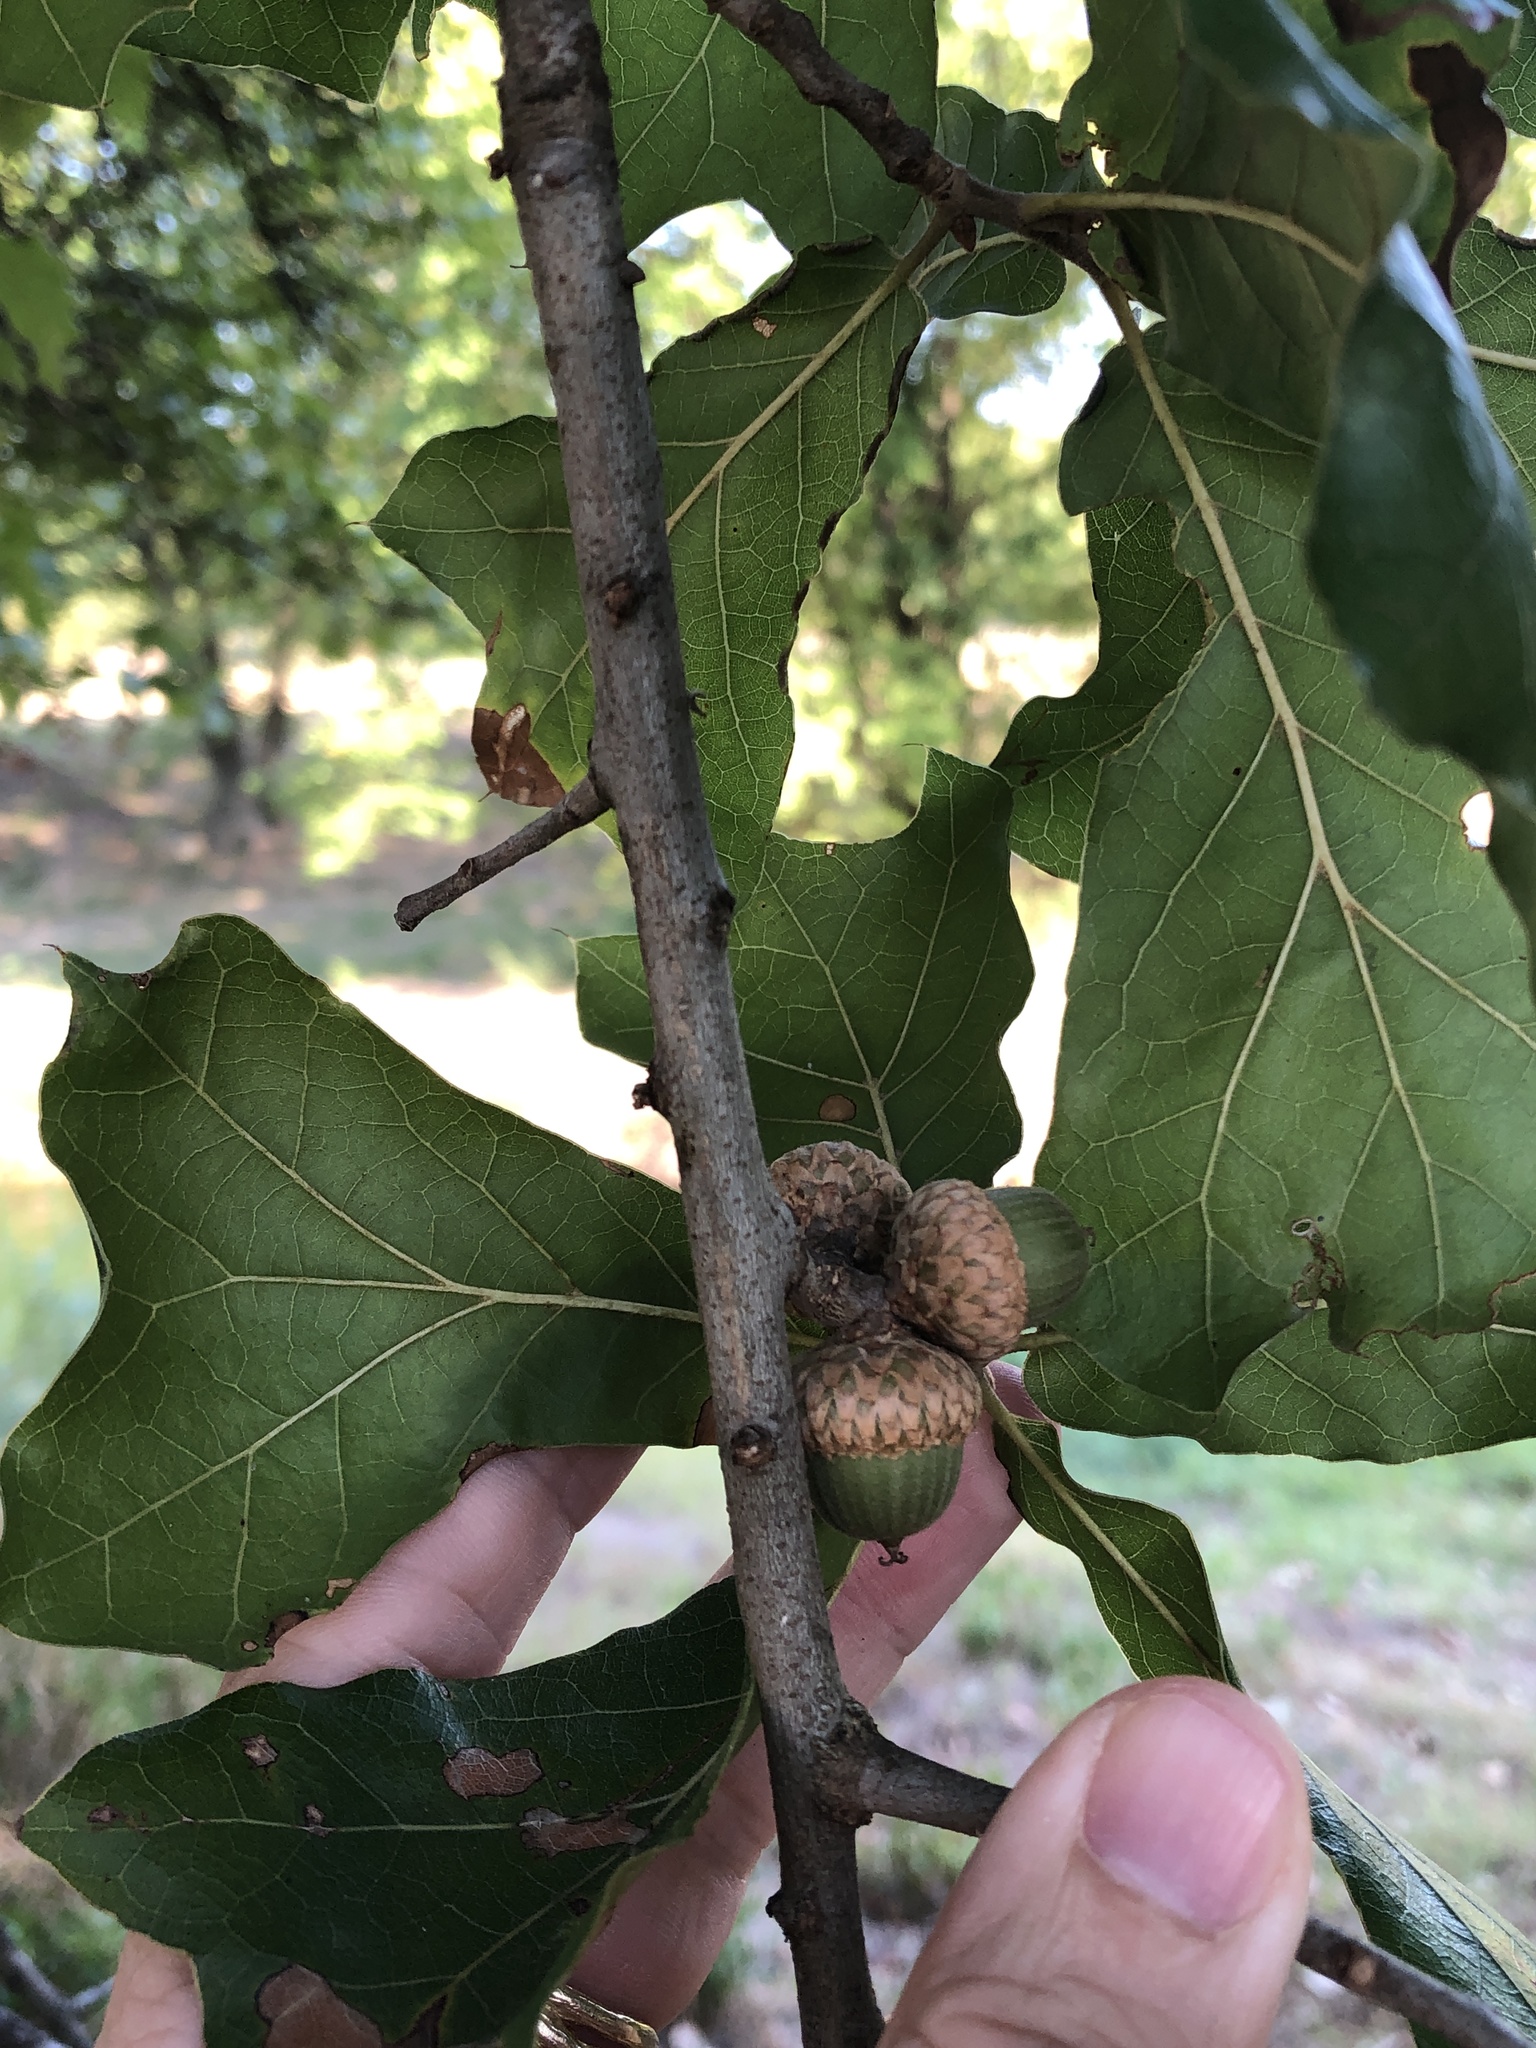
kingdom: Plantae
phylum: Tracheophyta
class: Magnoliopsida
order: Fagales
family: Fagaceae
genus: Quercus
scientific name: Quercus marilandica
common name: Blackjack oak
